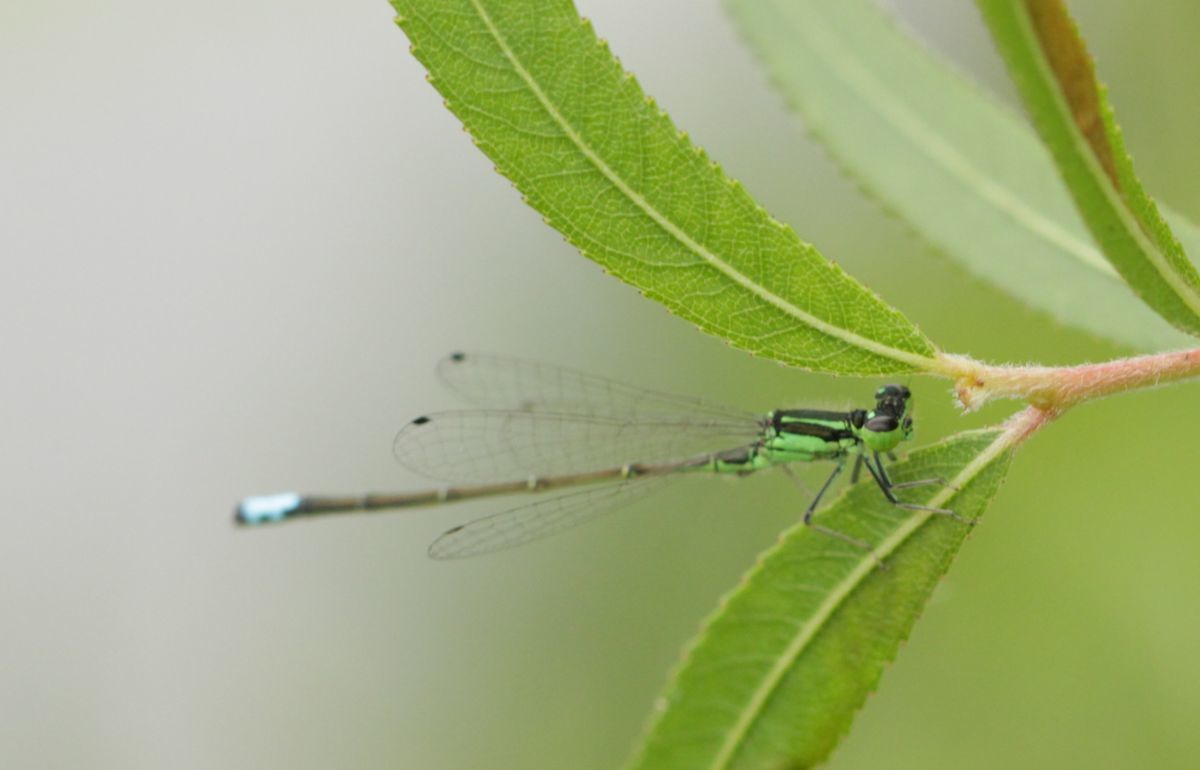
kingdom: Animalia
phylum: Arthropoda
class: Insecta
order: Odonata
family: Coenagrionidae
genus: Ischnura
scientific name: Ischnura verticalis
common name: Eastern forktail
